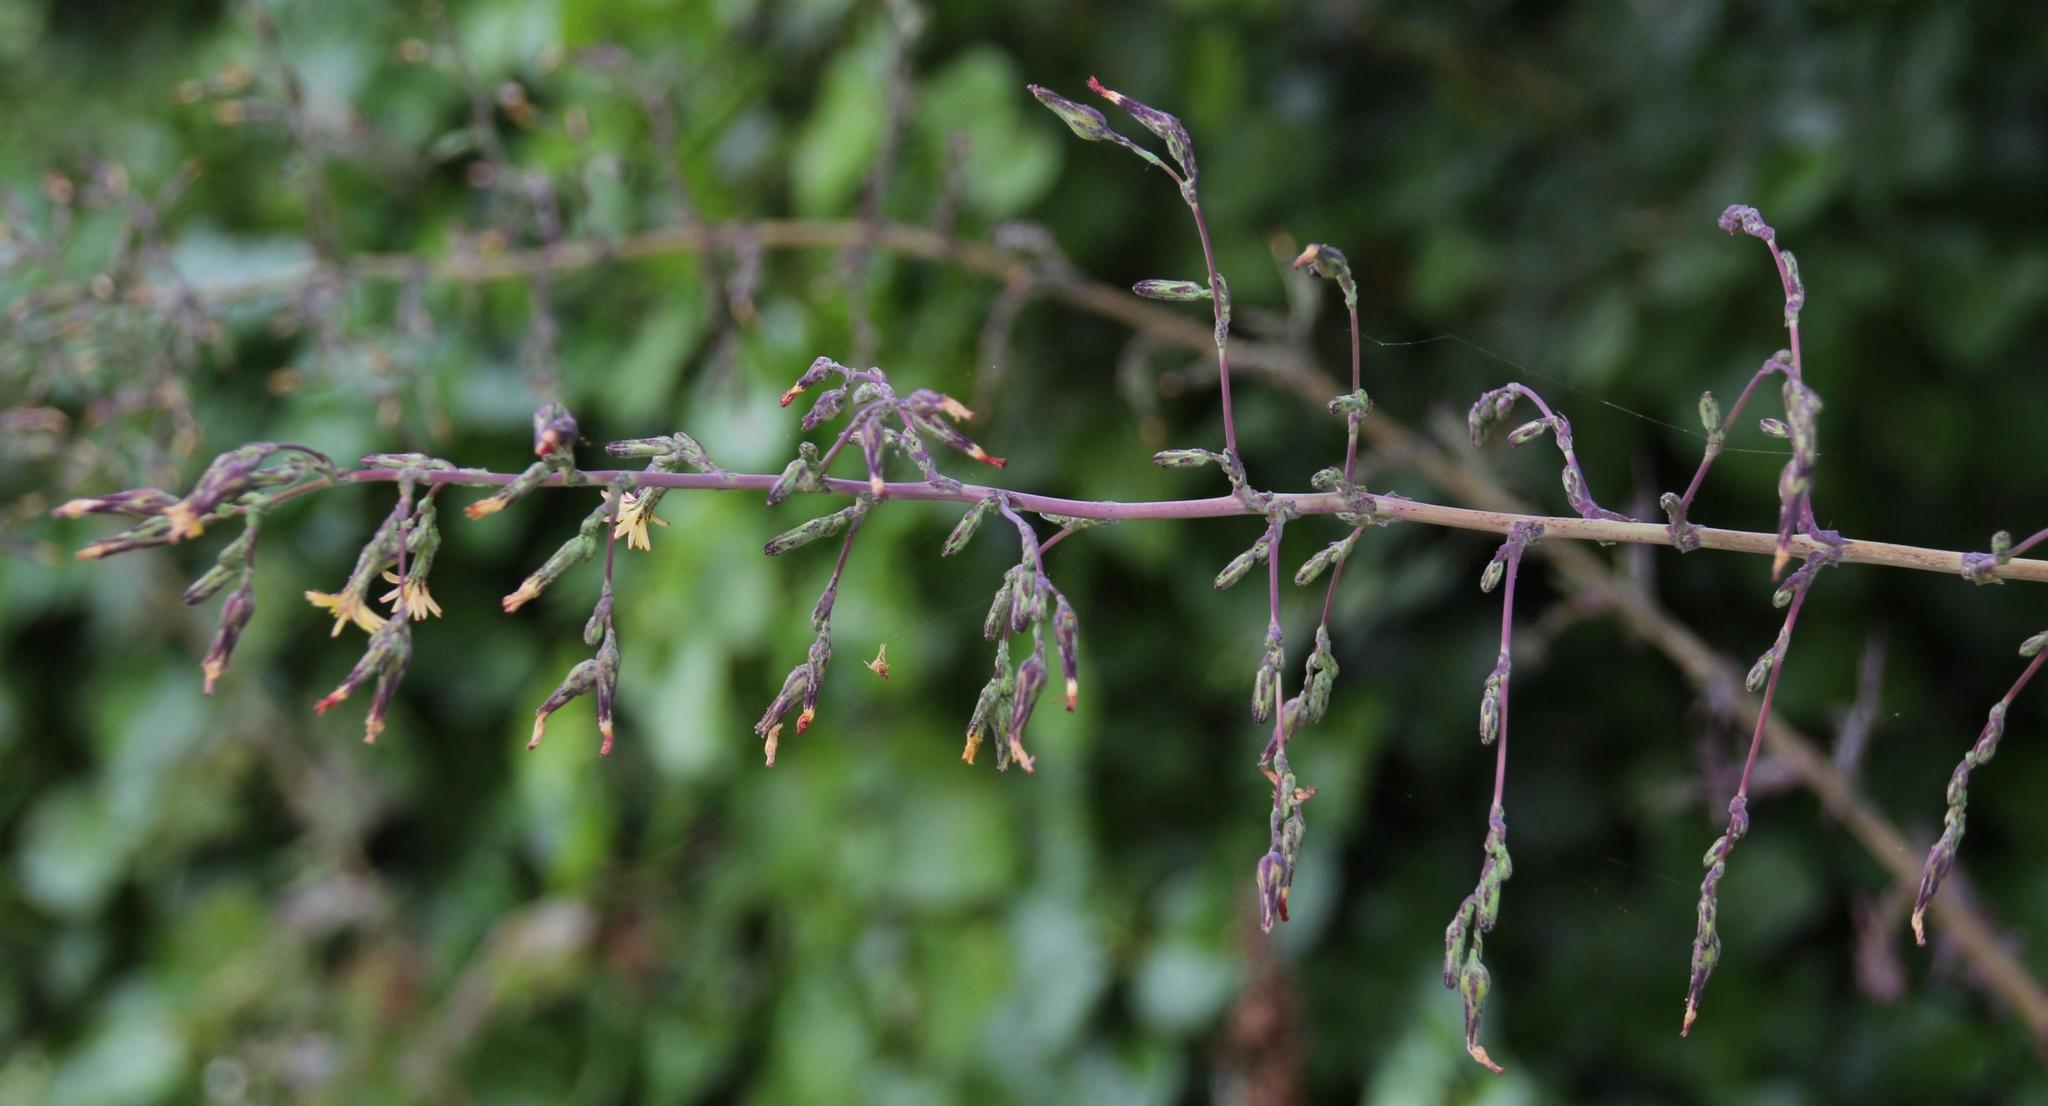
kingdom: Plantae
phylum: Tracheophyta
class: Magnoliopsida
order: Asterales
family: Asteraceae
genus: Lactuca
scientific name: Lactuca virosa
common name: Great lettuce
